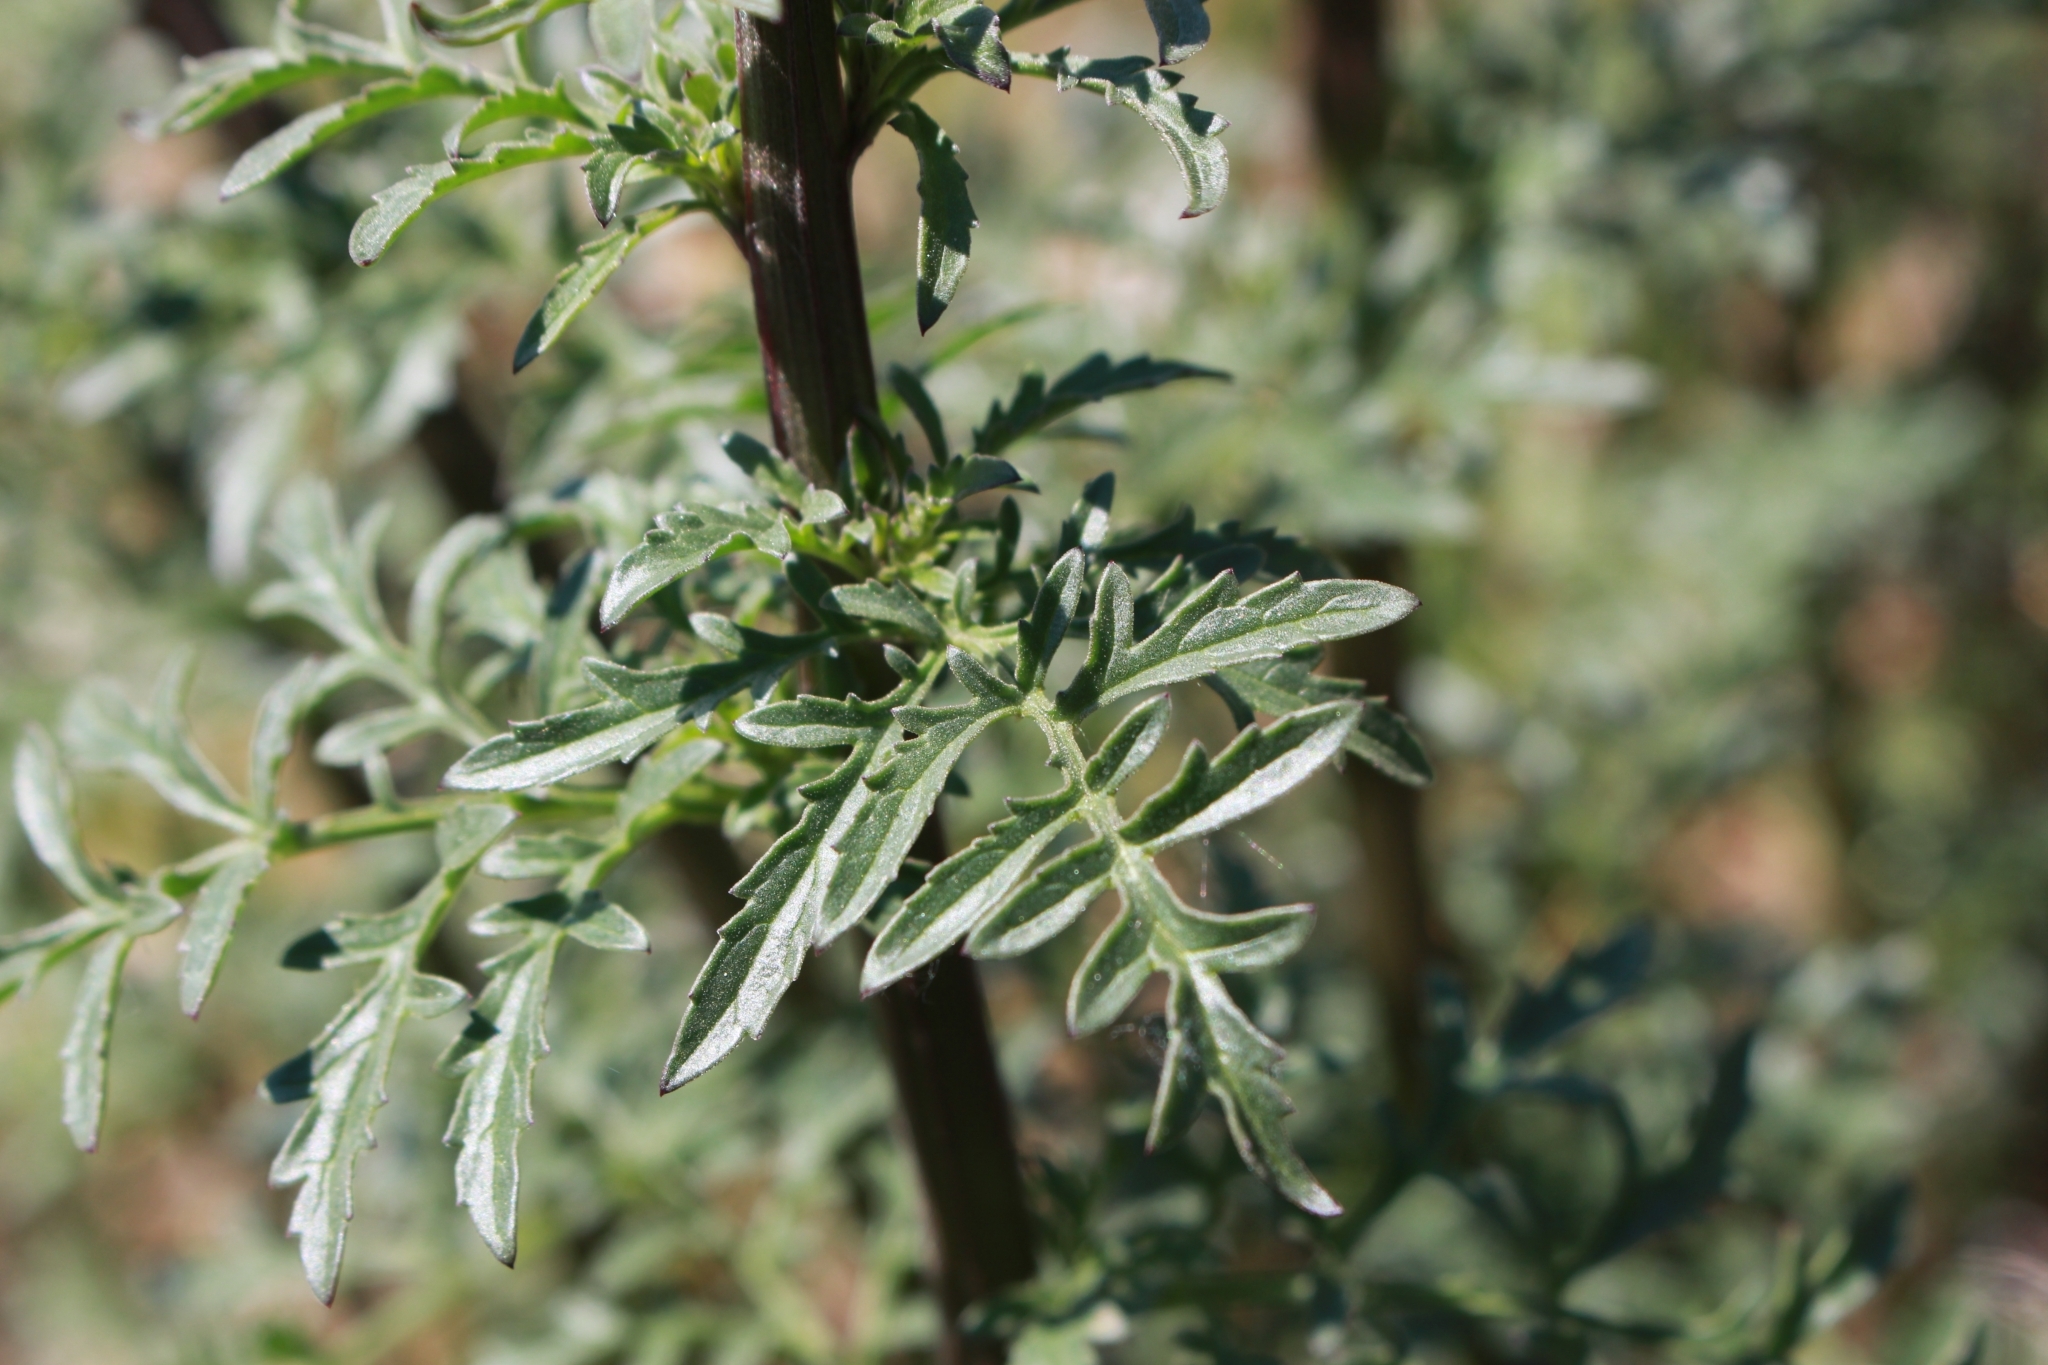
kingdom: Plantae
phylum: Tracheophyta
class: Magnoliopsida
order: Lamiales
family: Scrophulariaceae
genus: Scrophularia
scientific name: Scrophularia canina
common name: French figwort
